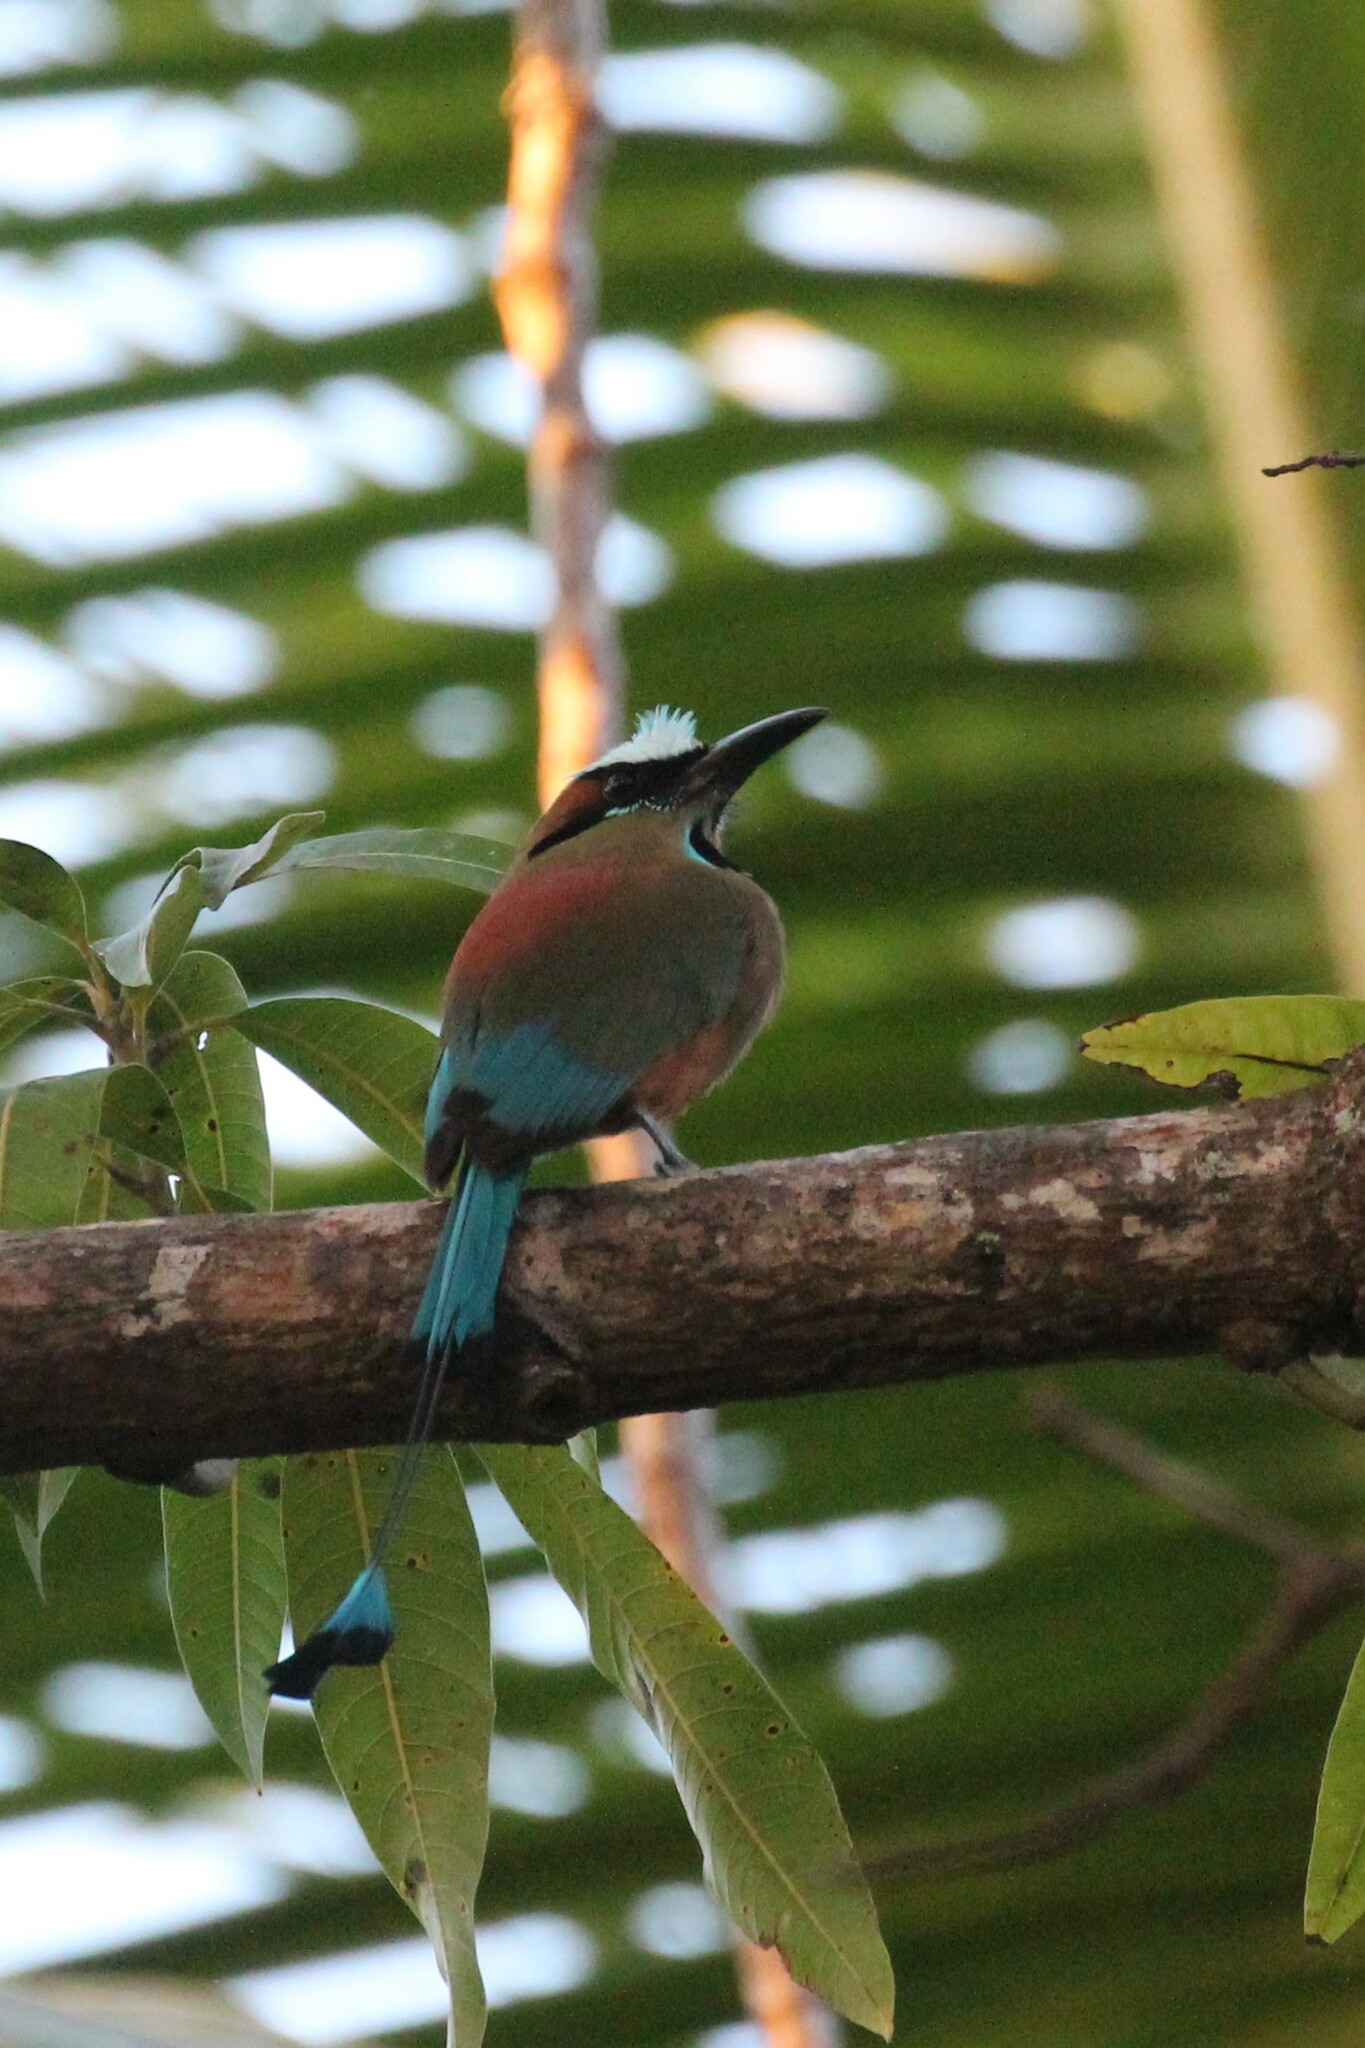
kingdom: Animalia
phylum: Chordata
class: Aves
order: Coraciiformes
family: Momotidae
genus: Eumomota
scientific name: Eumomota superciliosa
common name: Turquoise-browed motmot
